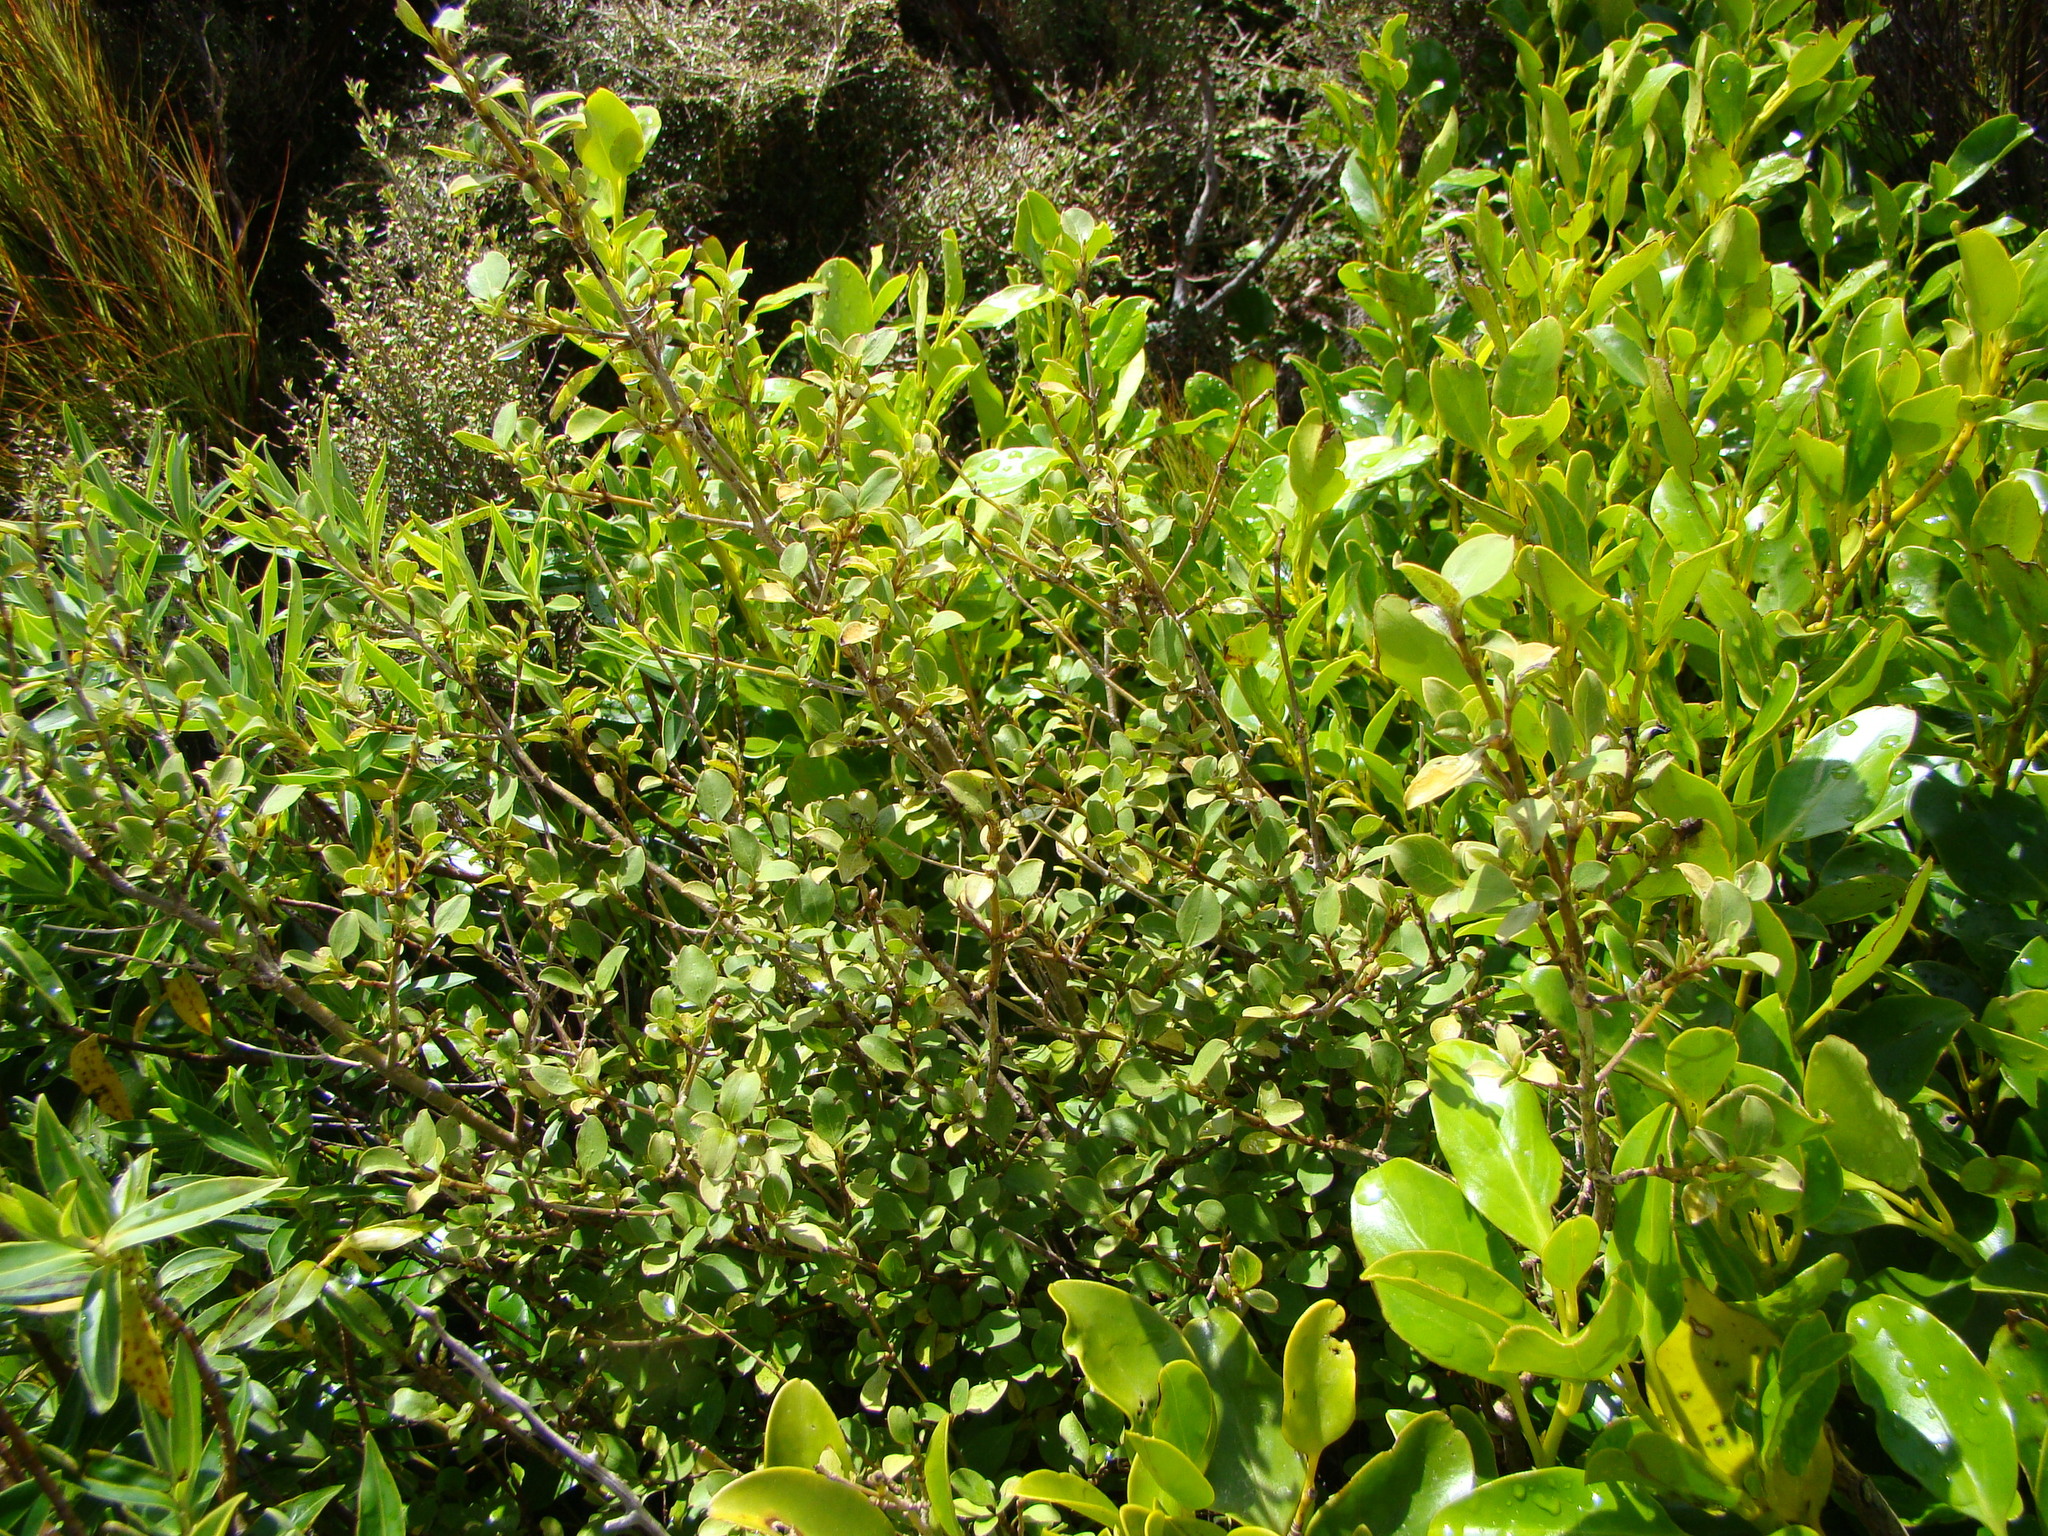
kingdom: Plantae
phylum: Tracheophyta
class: Magnoliopsida
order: Gentianales
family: Rubiaceae
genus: Coprosma
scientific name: Coprosma foetidissima
